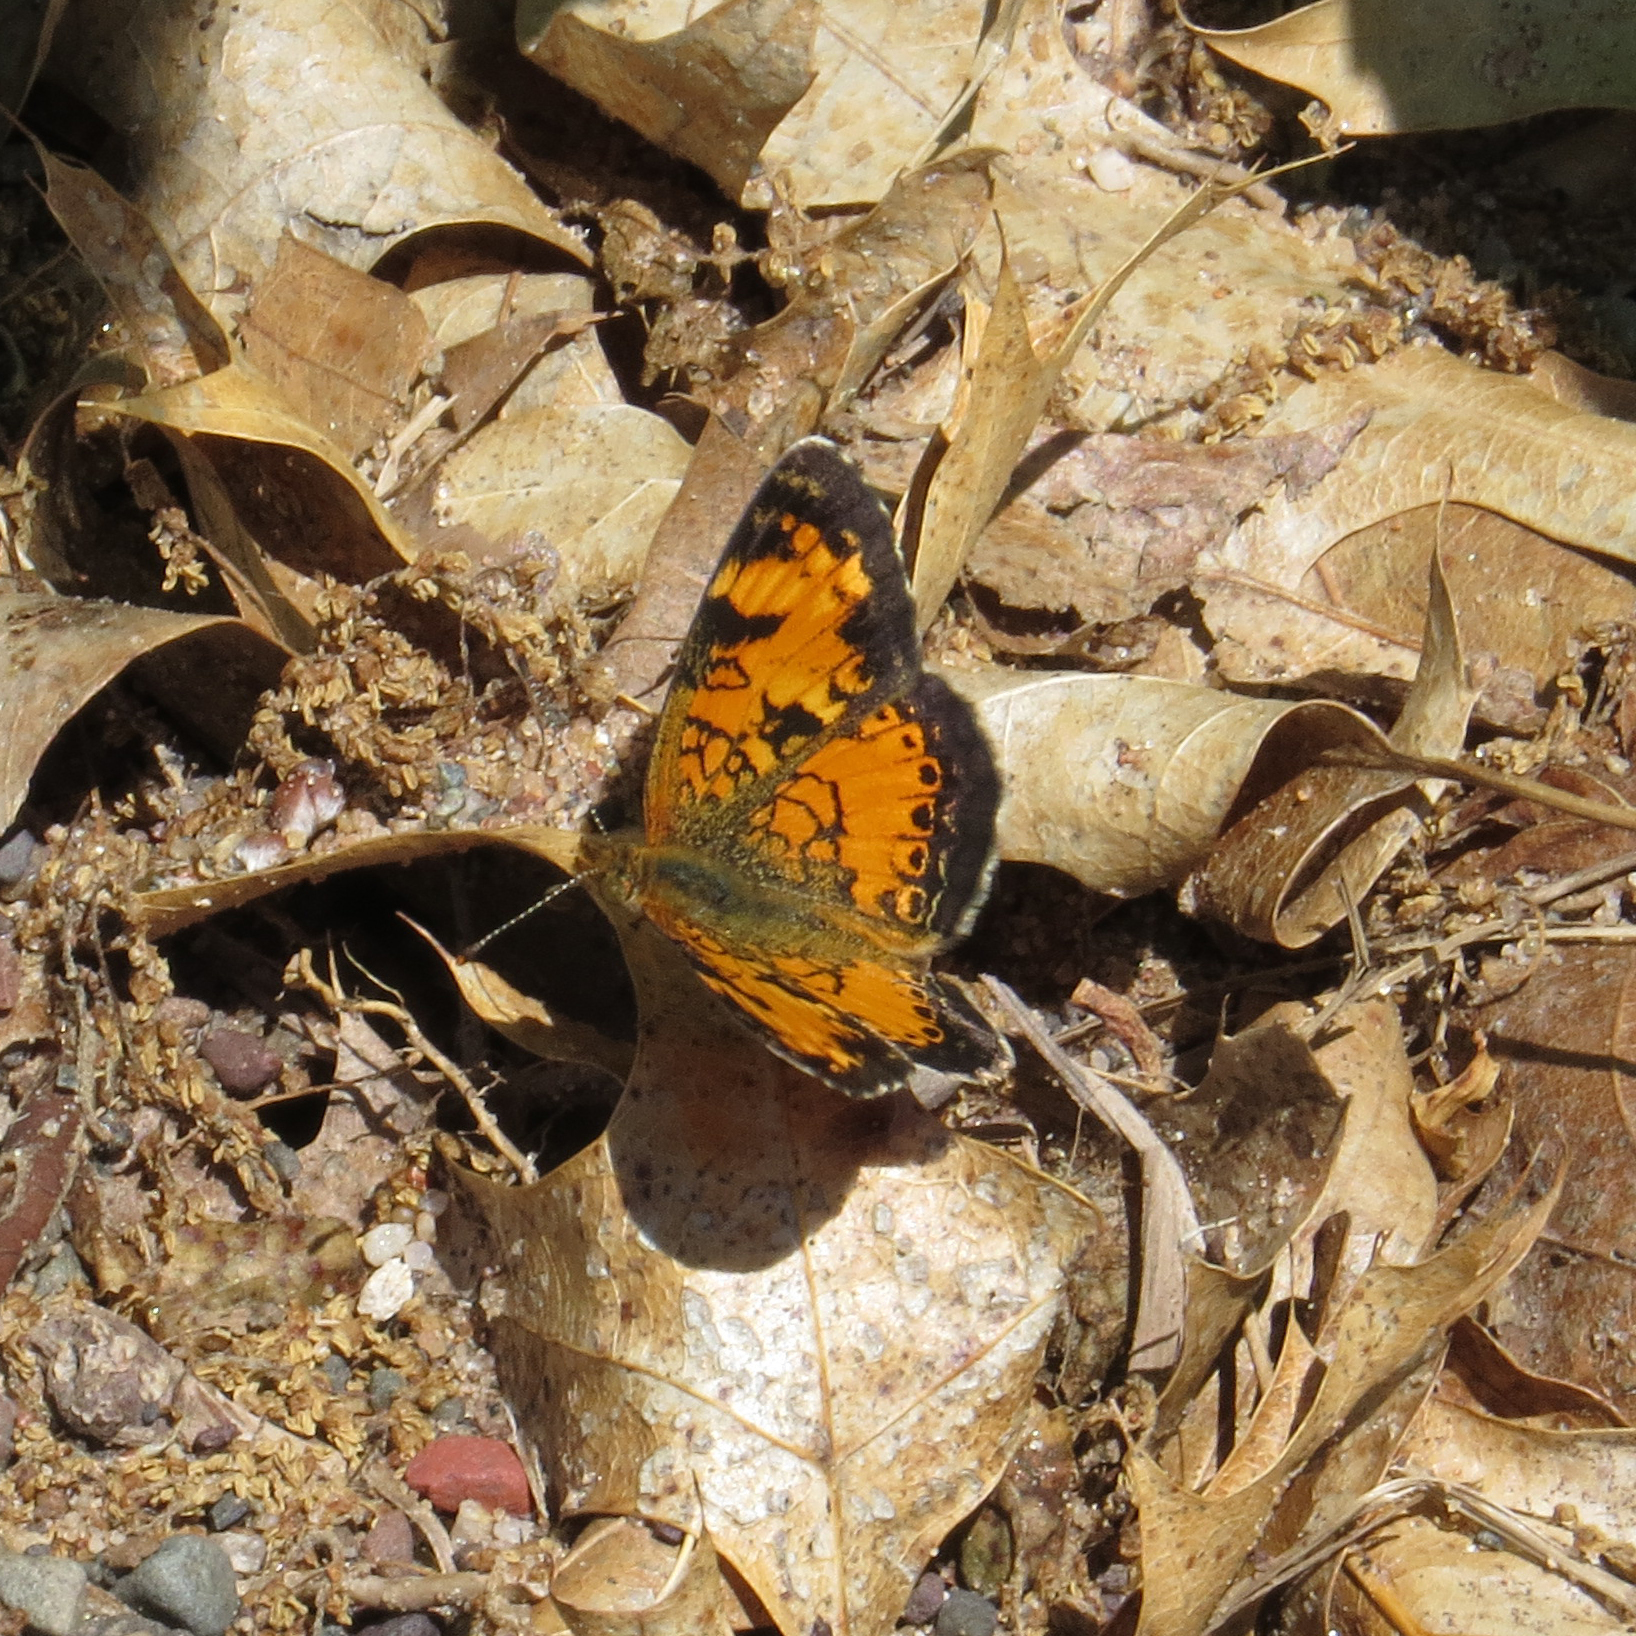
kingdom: Animalia
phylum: Arthropoda
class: Insecta
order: Lepidoptera
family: Nymphalidae
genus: Phyciodes
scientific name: Phyciodes tharos
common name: Pearl crescent
